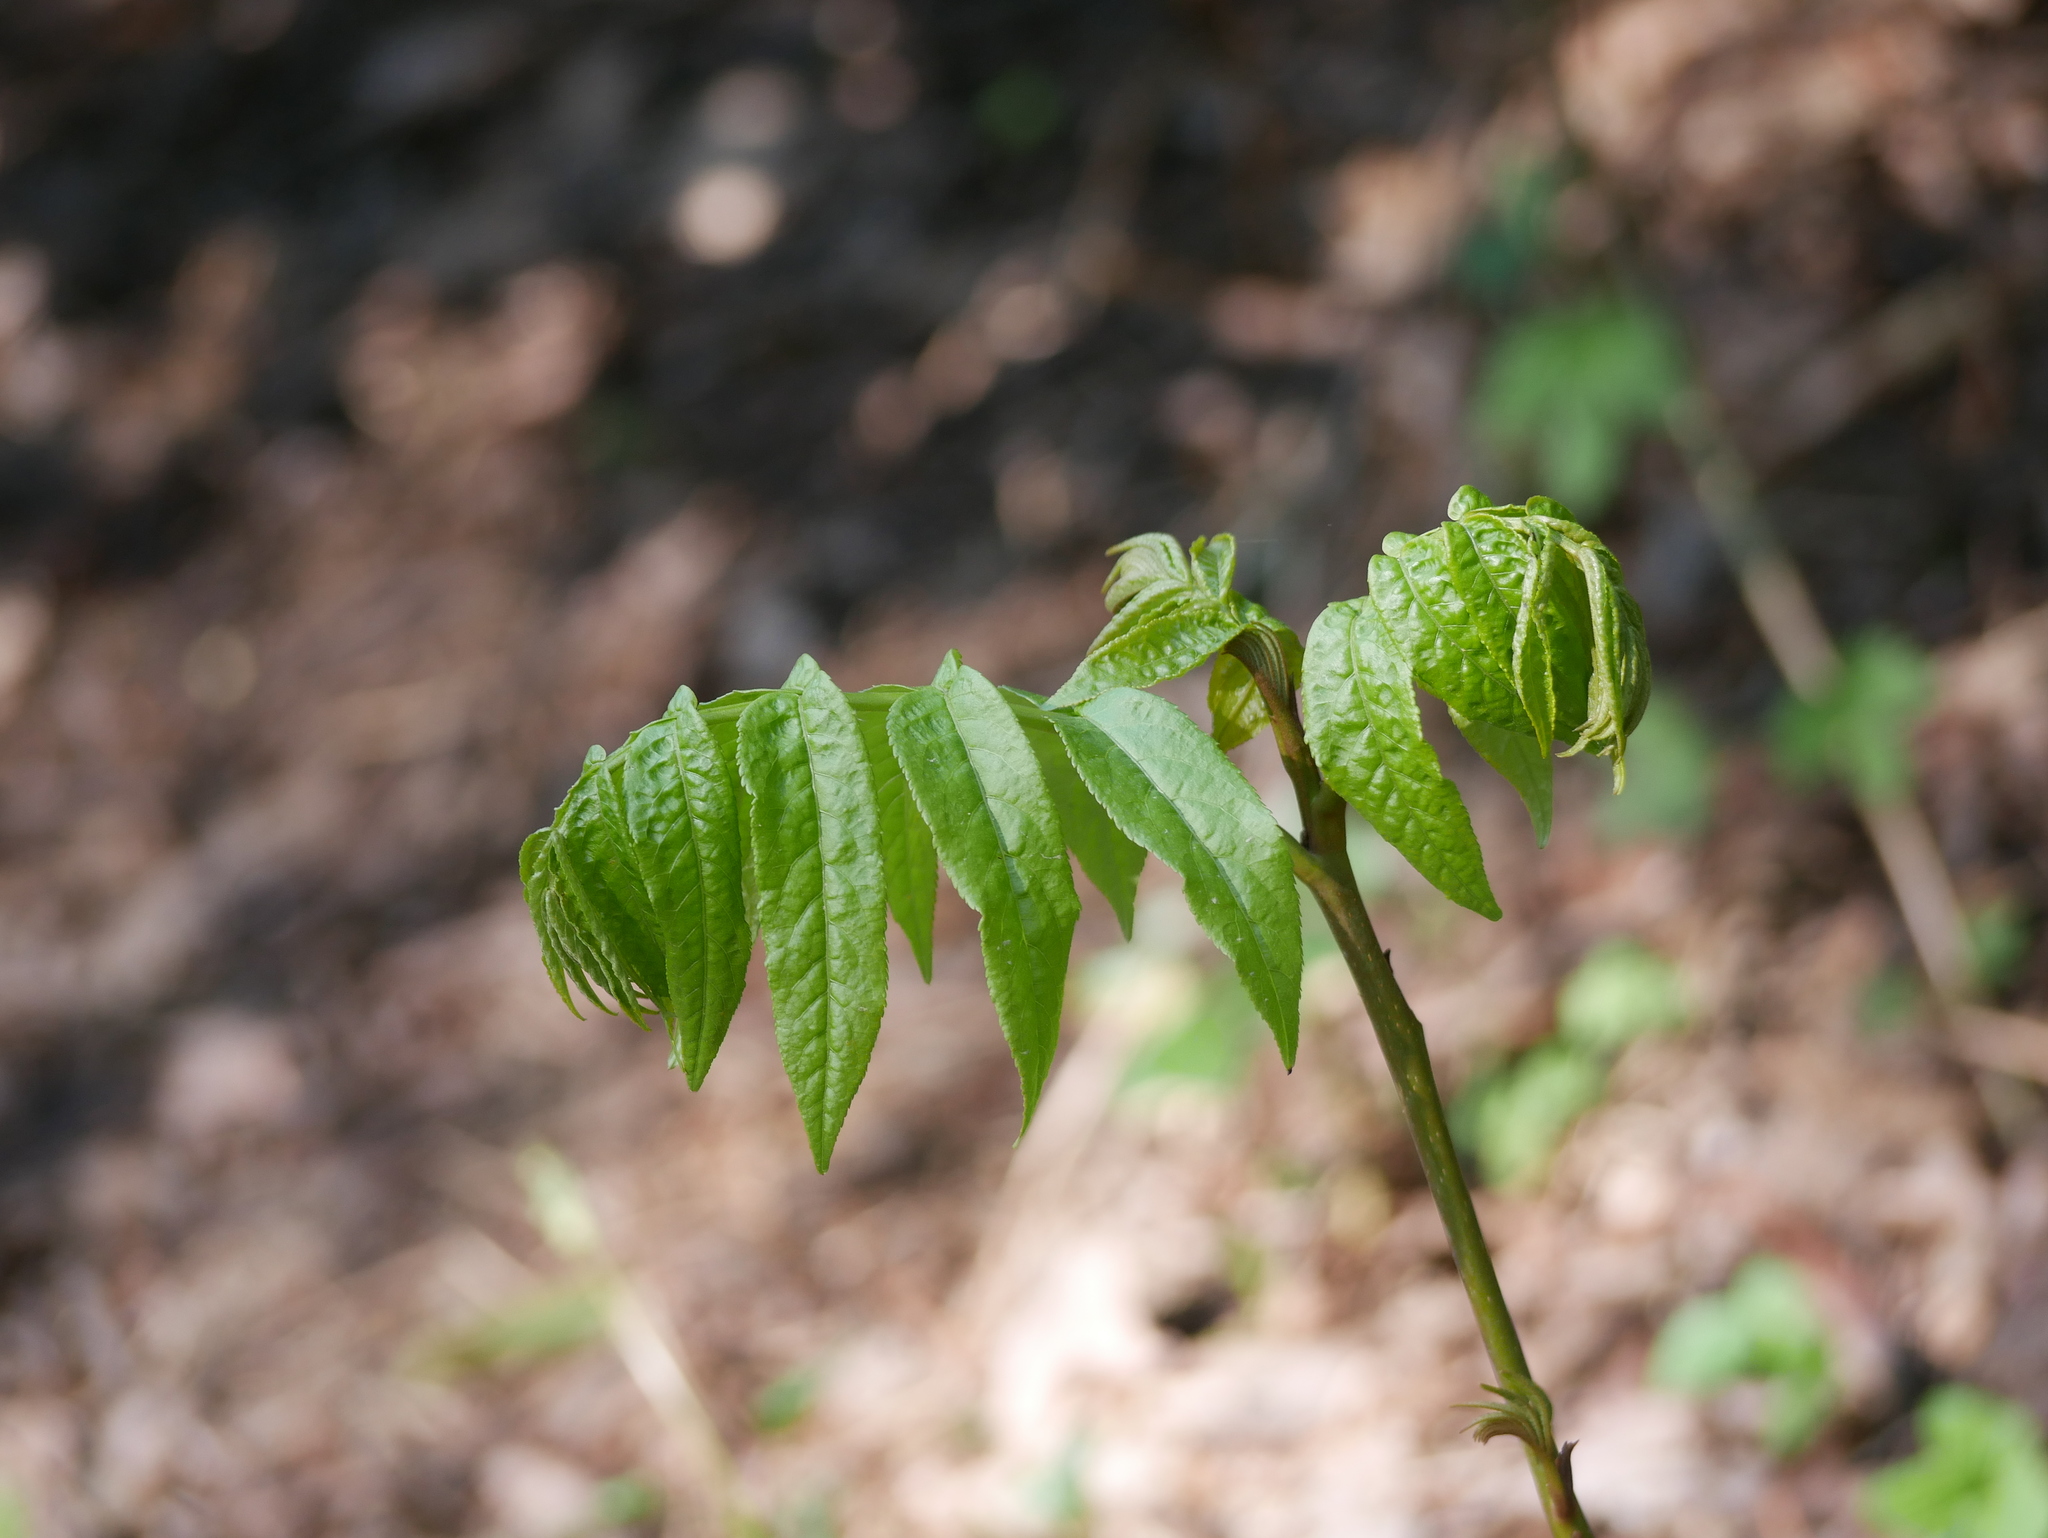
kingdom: Plantae
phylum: Tracheophyta
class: Magnoliopsida
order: Sapindales
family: Simaroubaceae
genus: Ailanthus
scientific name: Ailanthus altissima
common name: Tree-of-heaven
